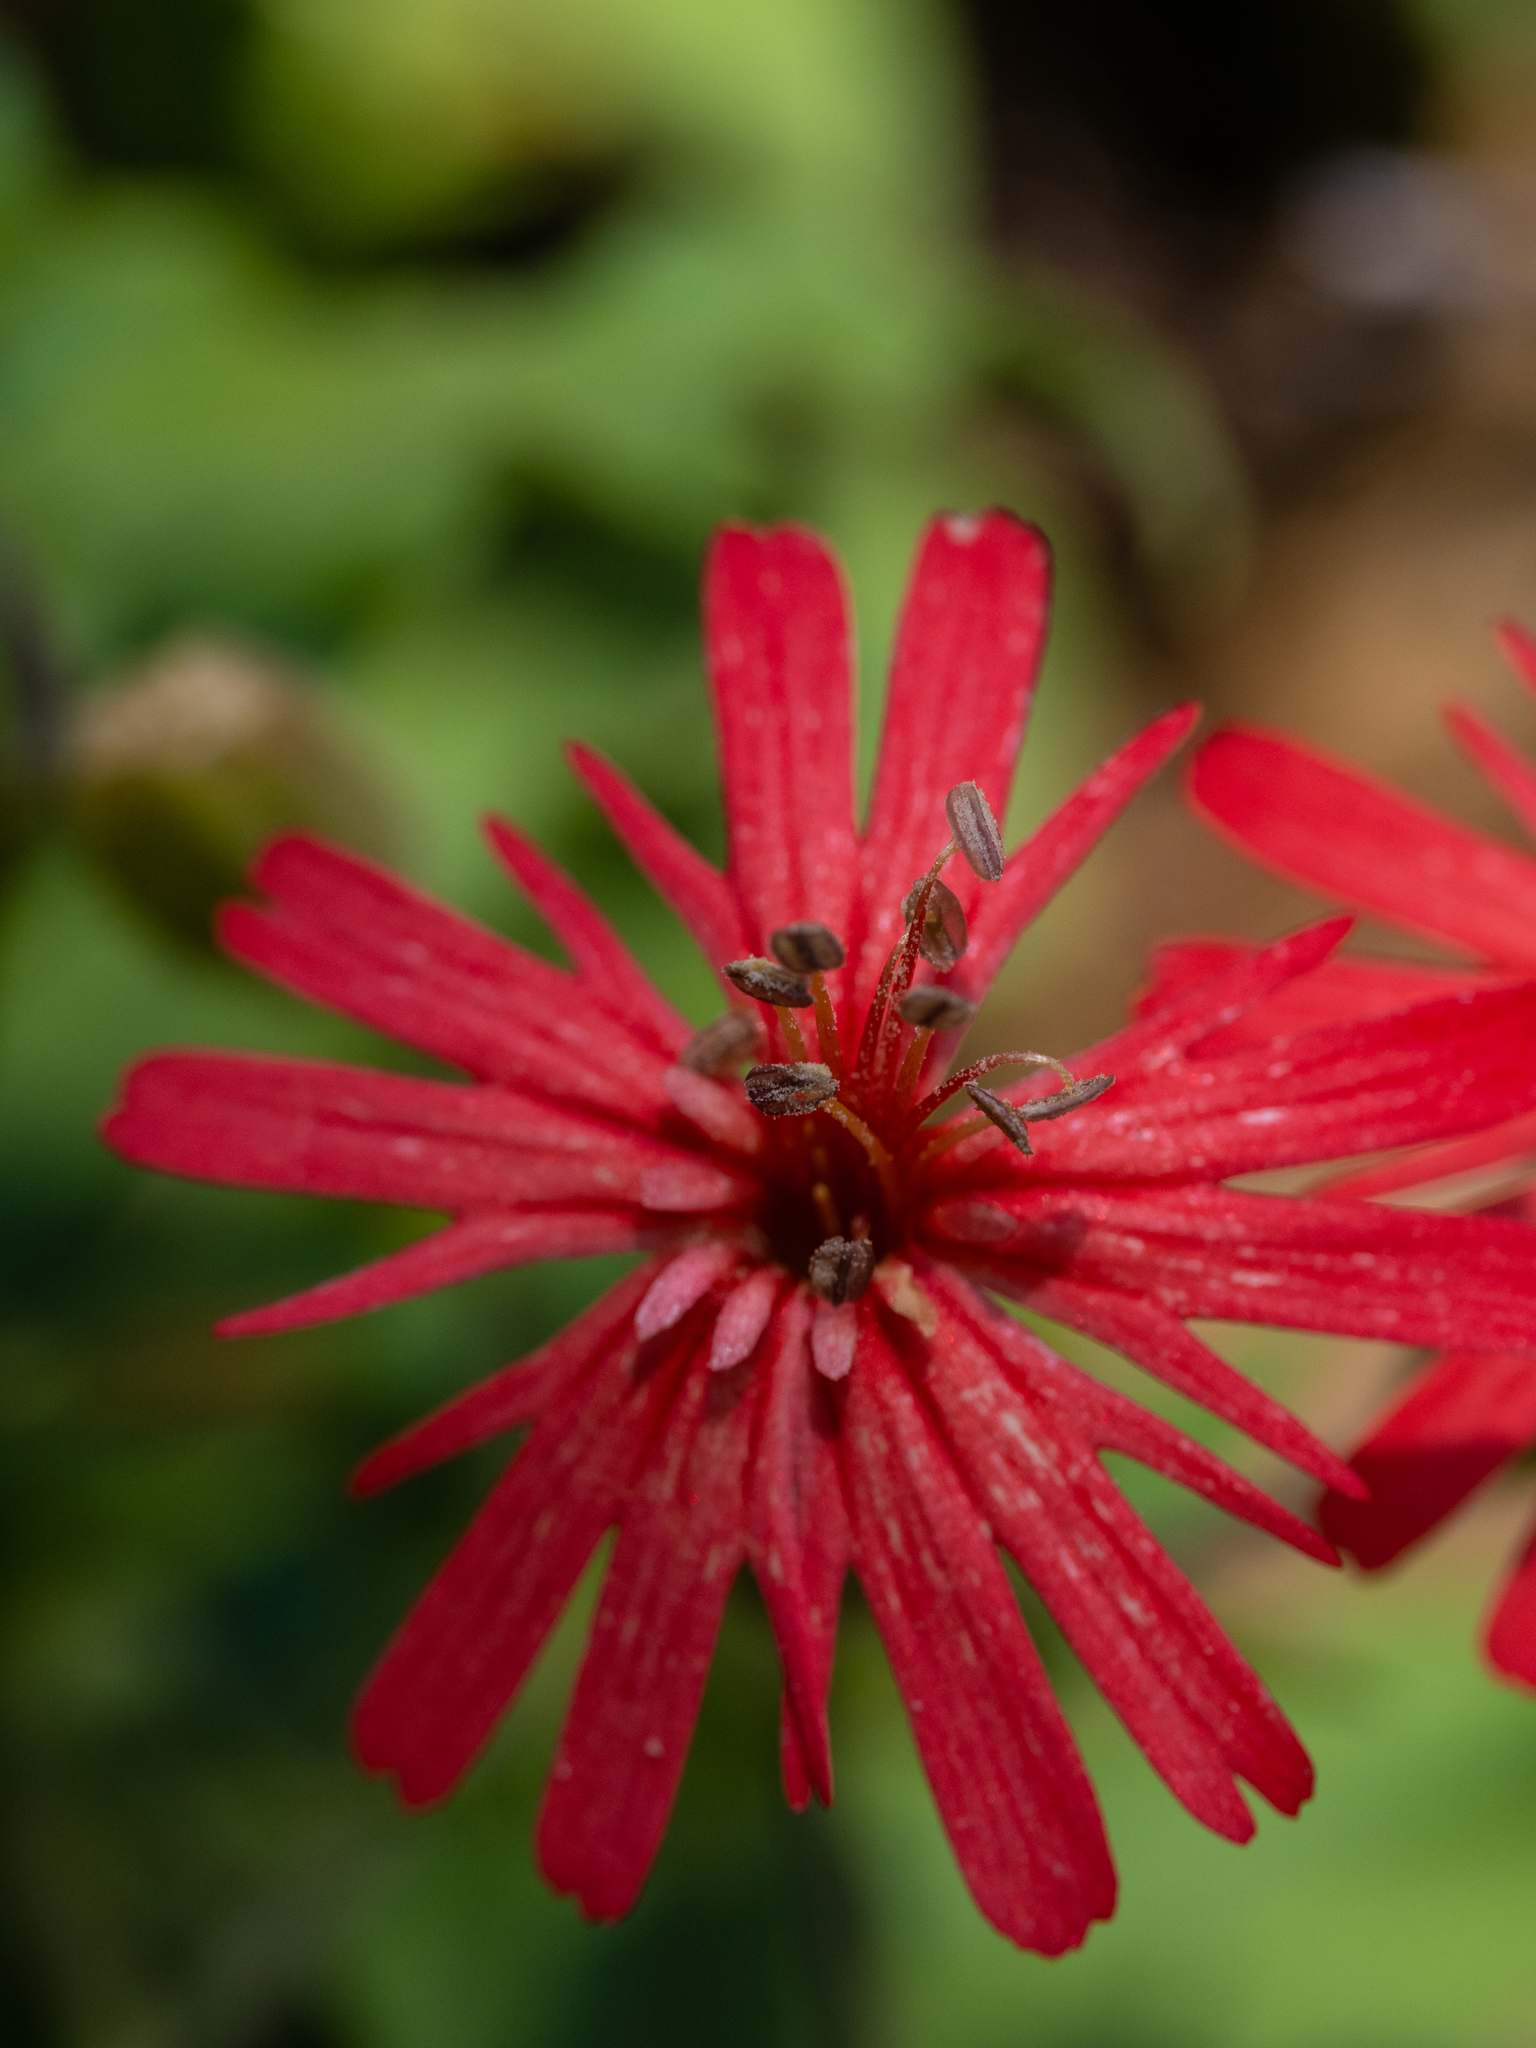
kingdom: Plantae
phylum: Tracheophyta
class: Magnoliopsida
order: Caryophyllales
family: Caryophyllaceae
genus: Silene
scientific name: Silene laciniata
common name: Indian-pink
